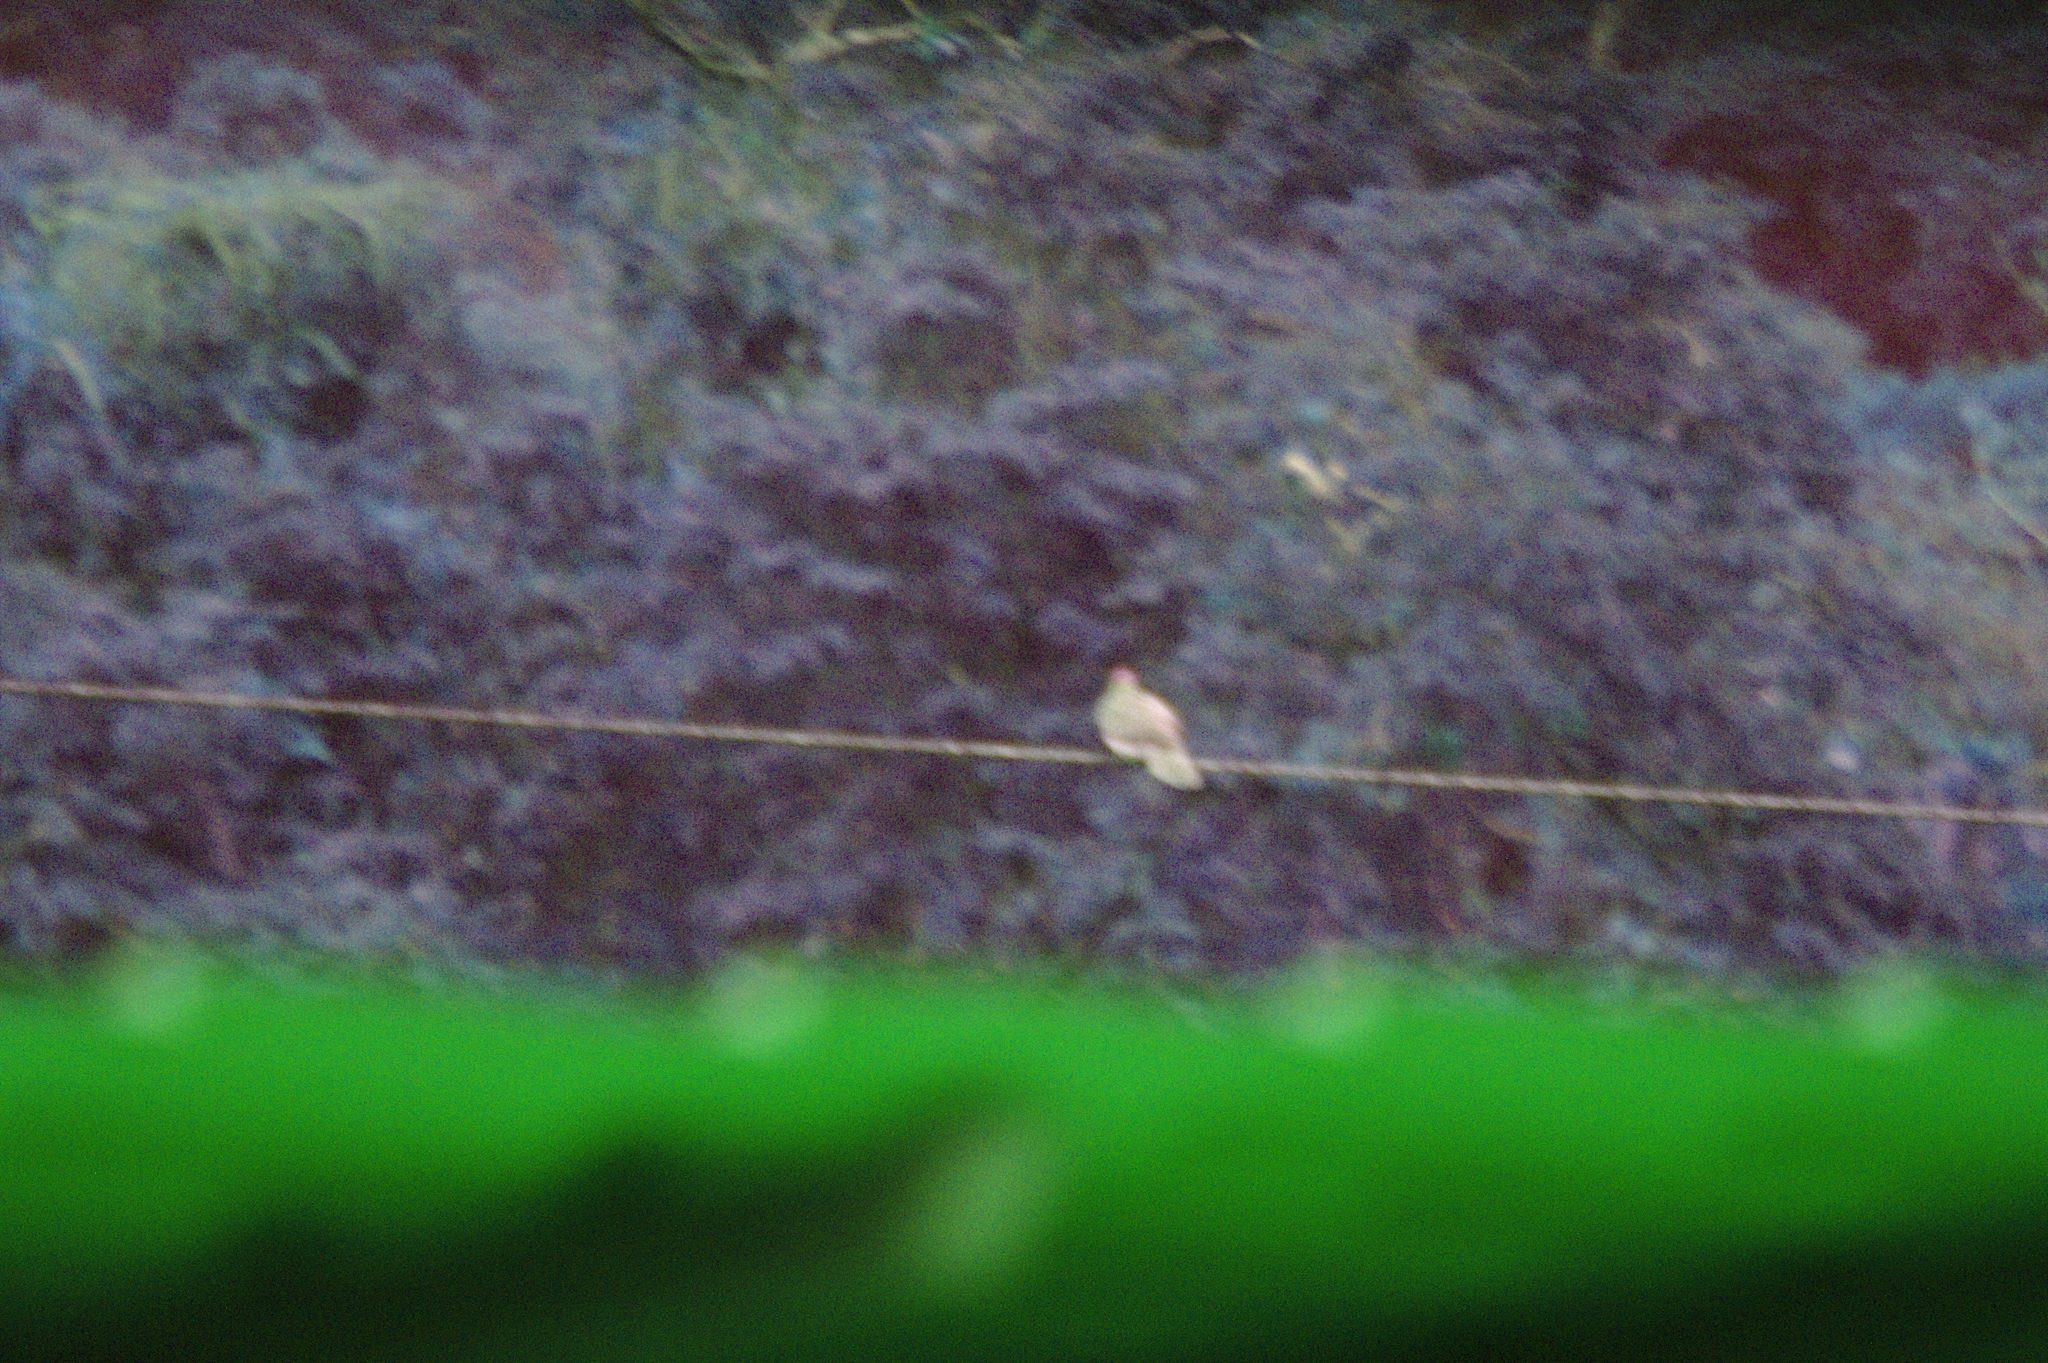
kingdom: Animalia
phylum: Chordata
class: Aves
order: Columbiformes
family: Columbidae
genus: Patagioenas
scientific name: Patagioenas cayennensis
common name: Pale-vented pigeon
